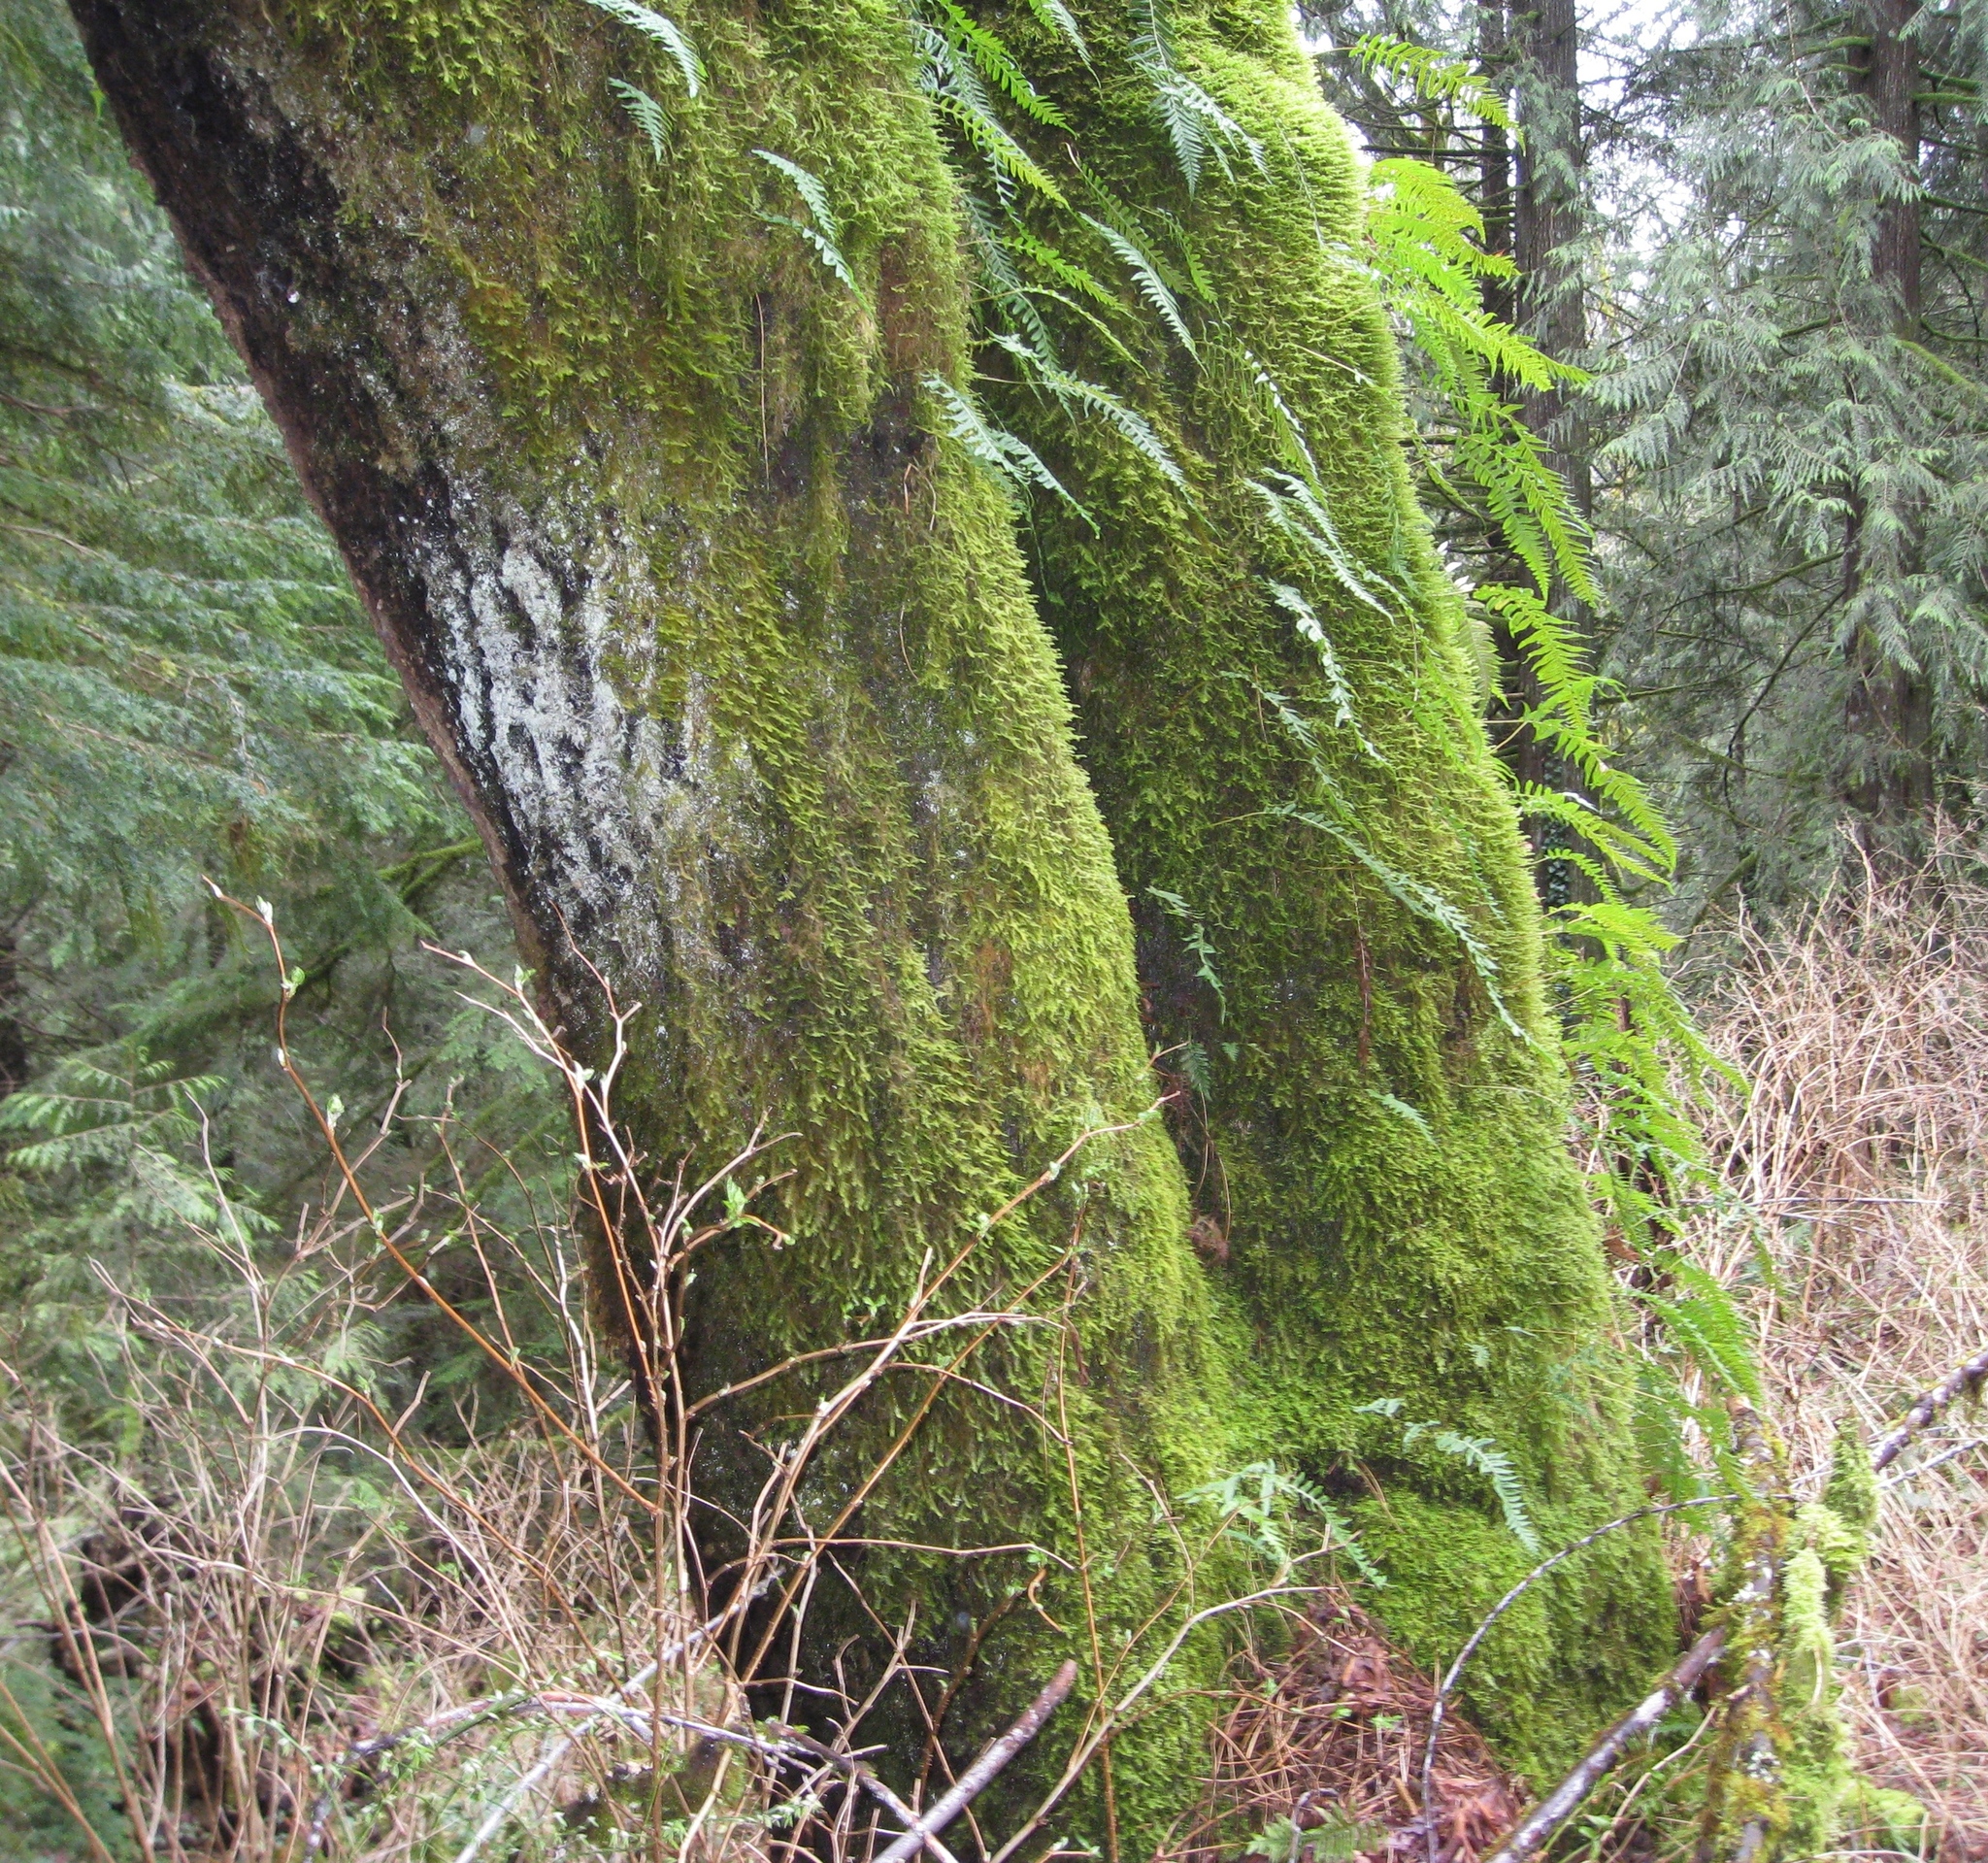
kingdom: Plantae
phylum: Tracheophyta
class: Polypodiopsida
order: Polypodiales
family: Polypodiaceae
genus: Polypodium
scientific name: Polypodium glycyrrhiza
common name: Licorice fern
